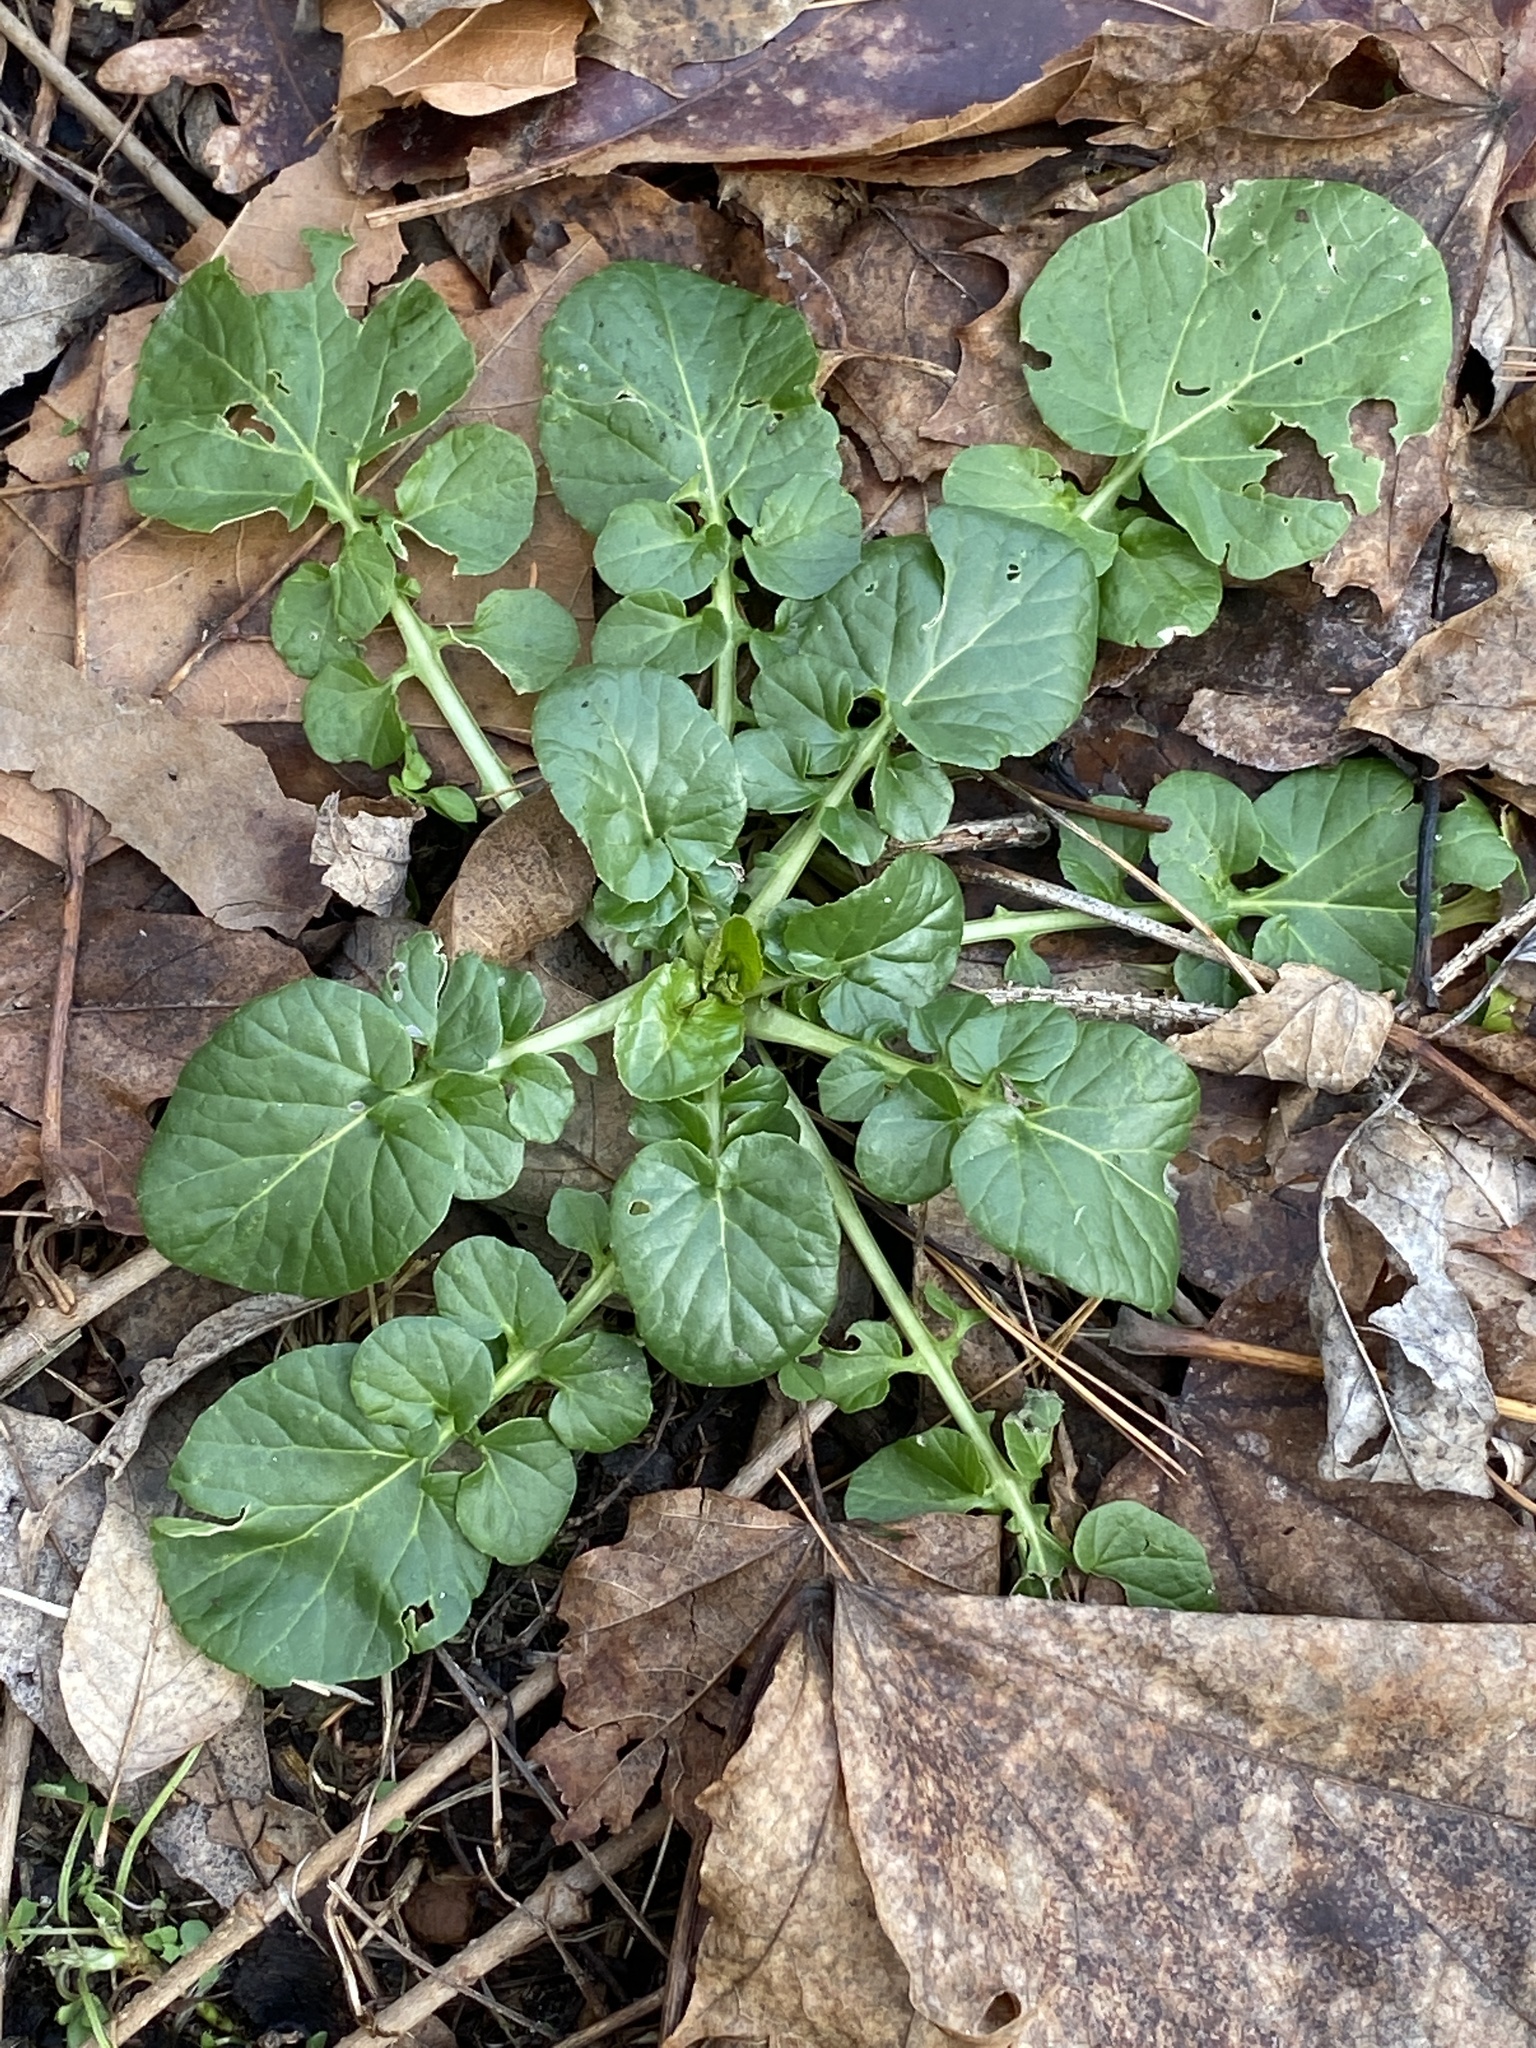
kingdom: Plantae
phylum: Tracheophyta
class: Magnoliopsida
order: Brassicales
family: Brassicaceae
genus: Barbarea
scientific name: Barbarea vulgaris
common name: Cressy-greens
